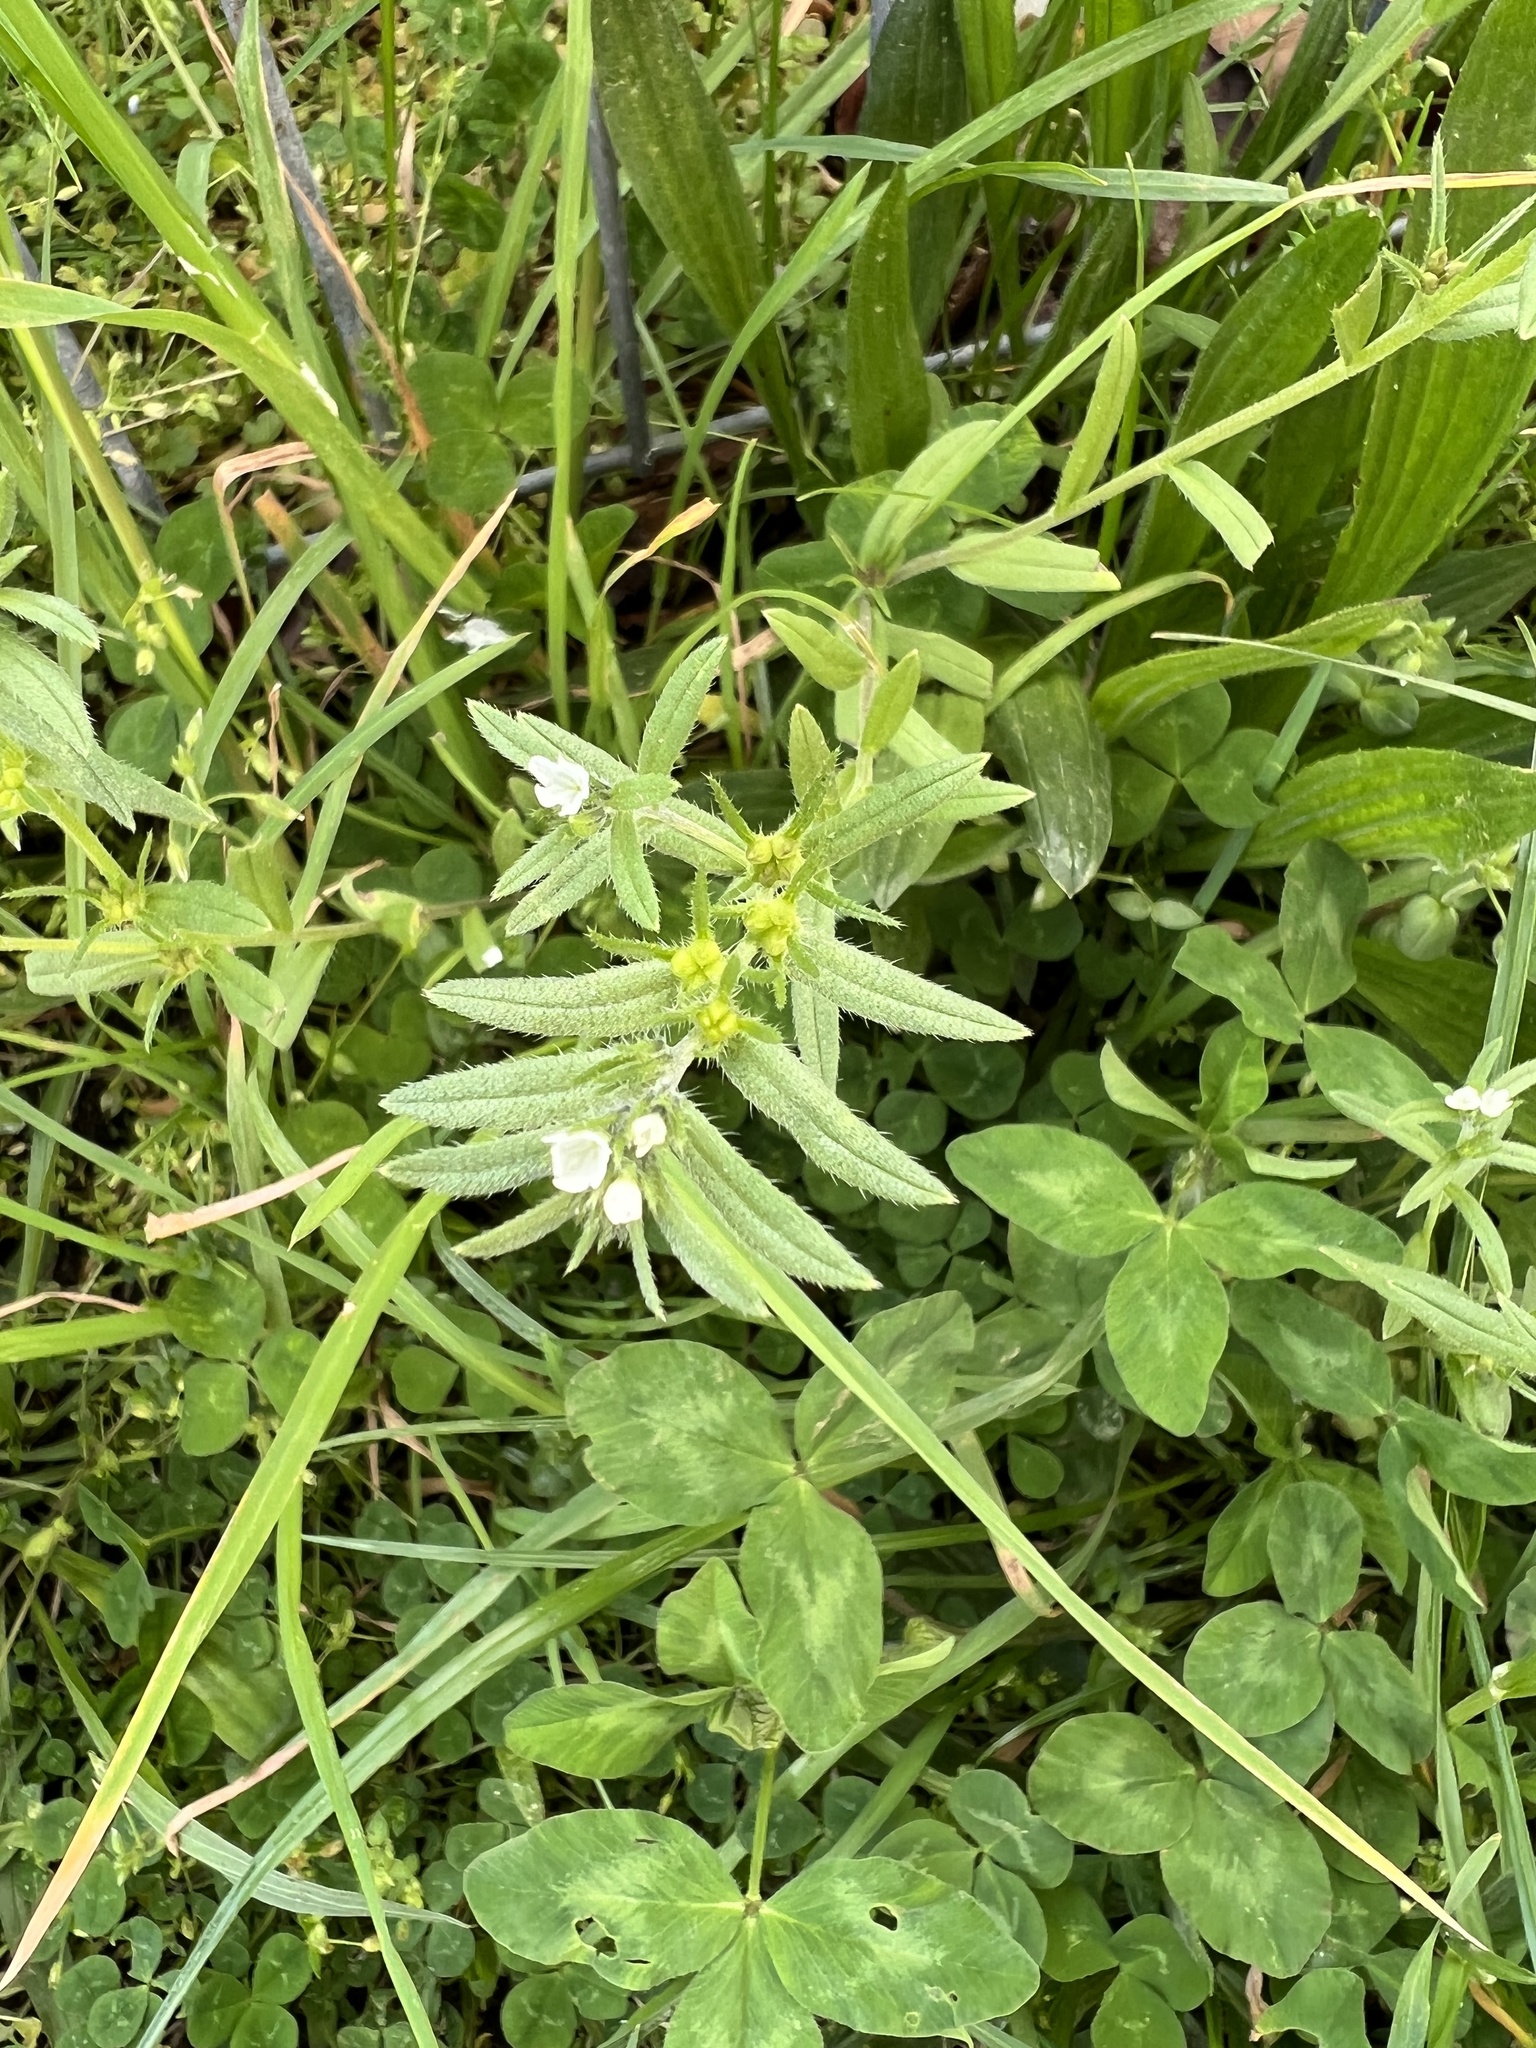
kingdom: Plantae
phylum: Tracheophyta
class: Magnoliopsida
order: Boraginales
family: Boraginaceae
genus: Buglossoides
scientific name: Buglossoides arvensis
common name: Corn gromwell
